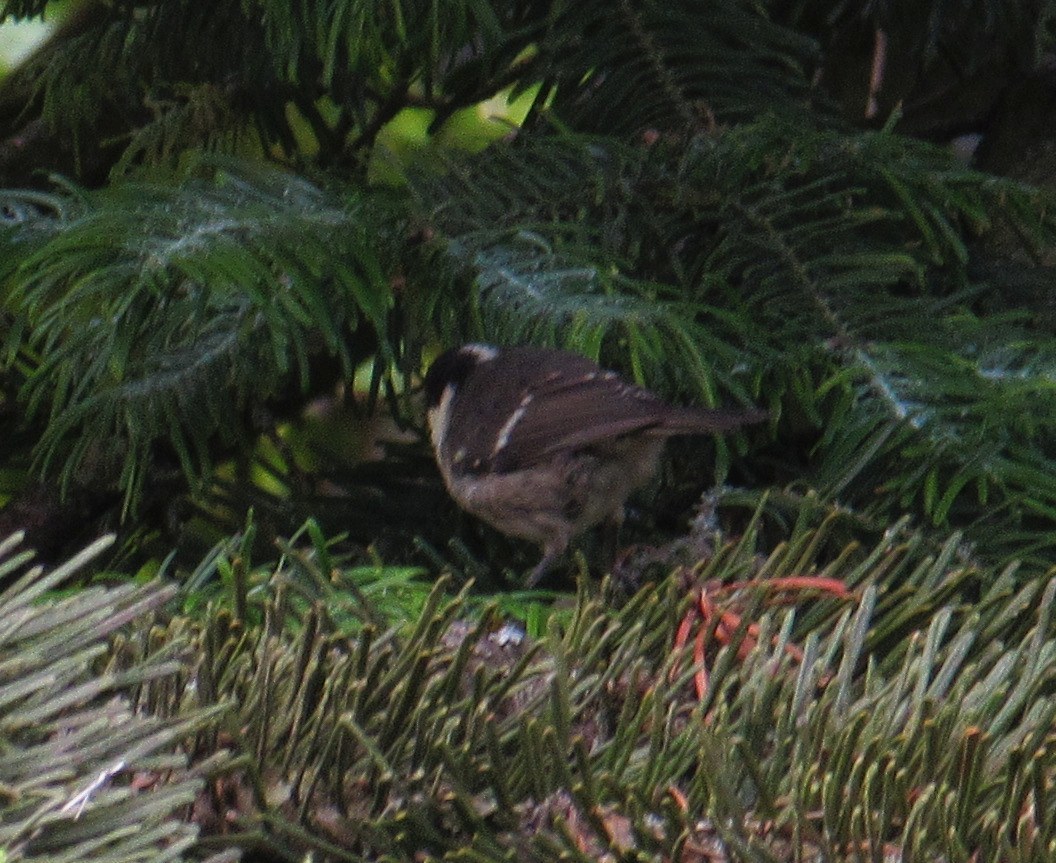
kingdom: Animalia
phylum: Chordata
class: Aves
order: Passeriformes
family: Paridae
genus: Periparus
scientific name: Periparus ater
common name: Coal tit
